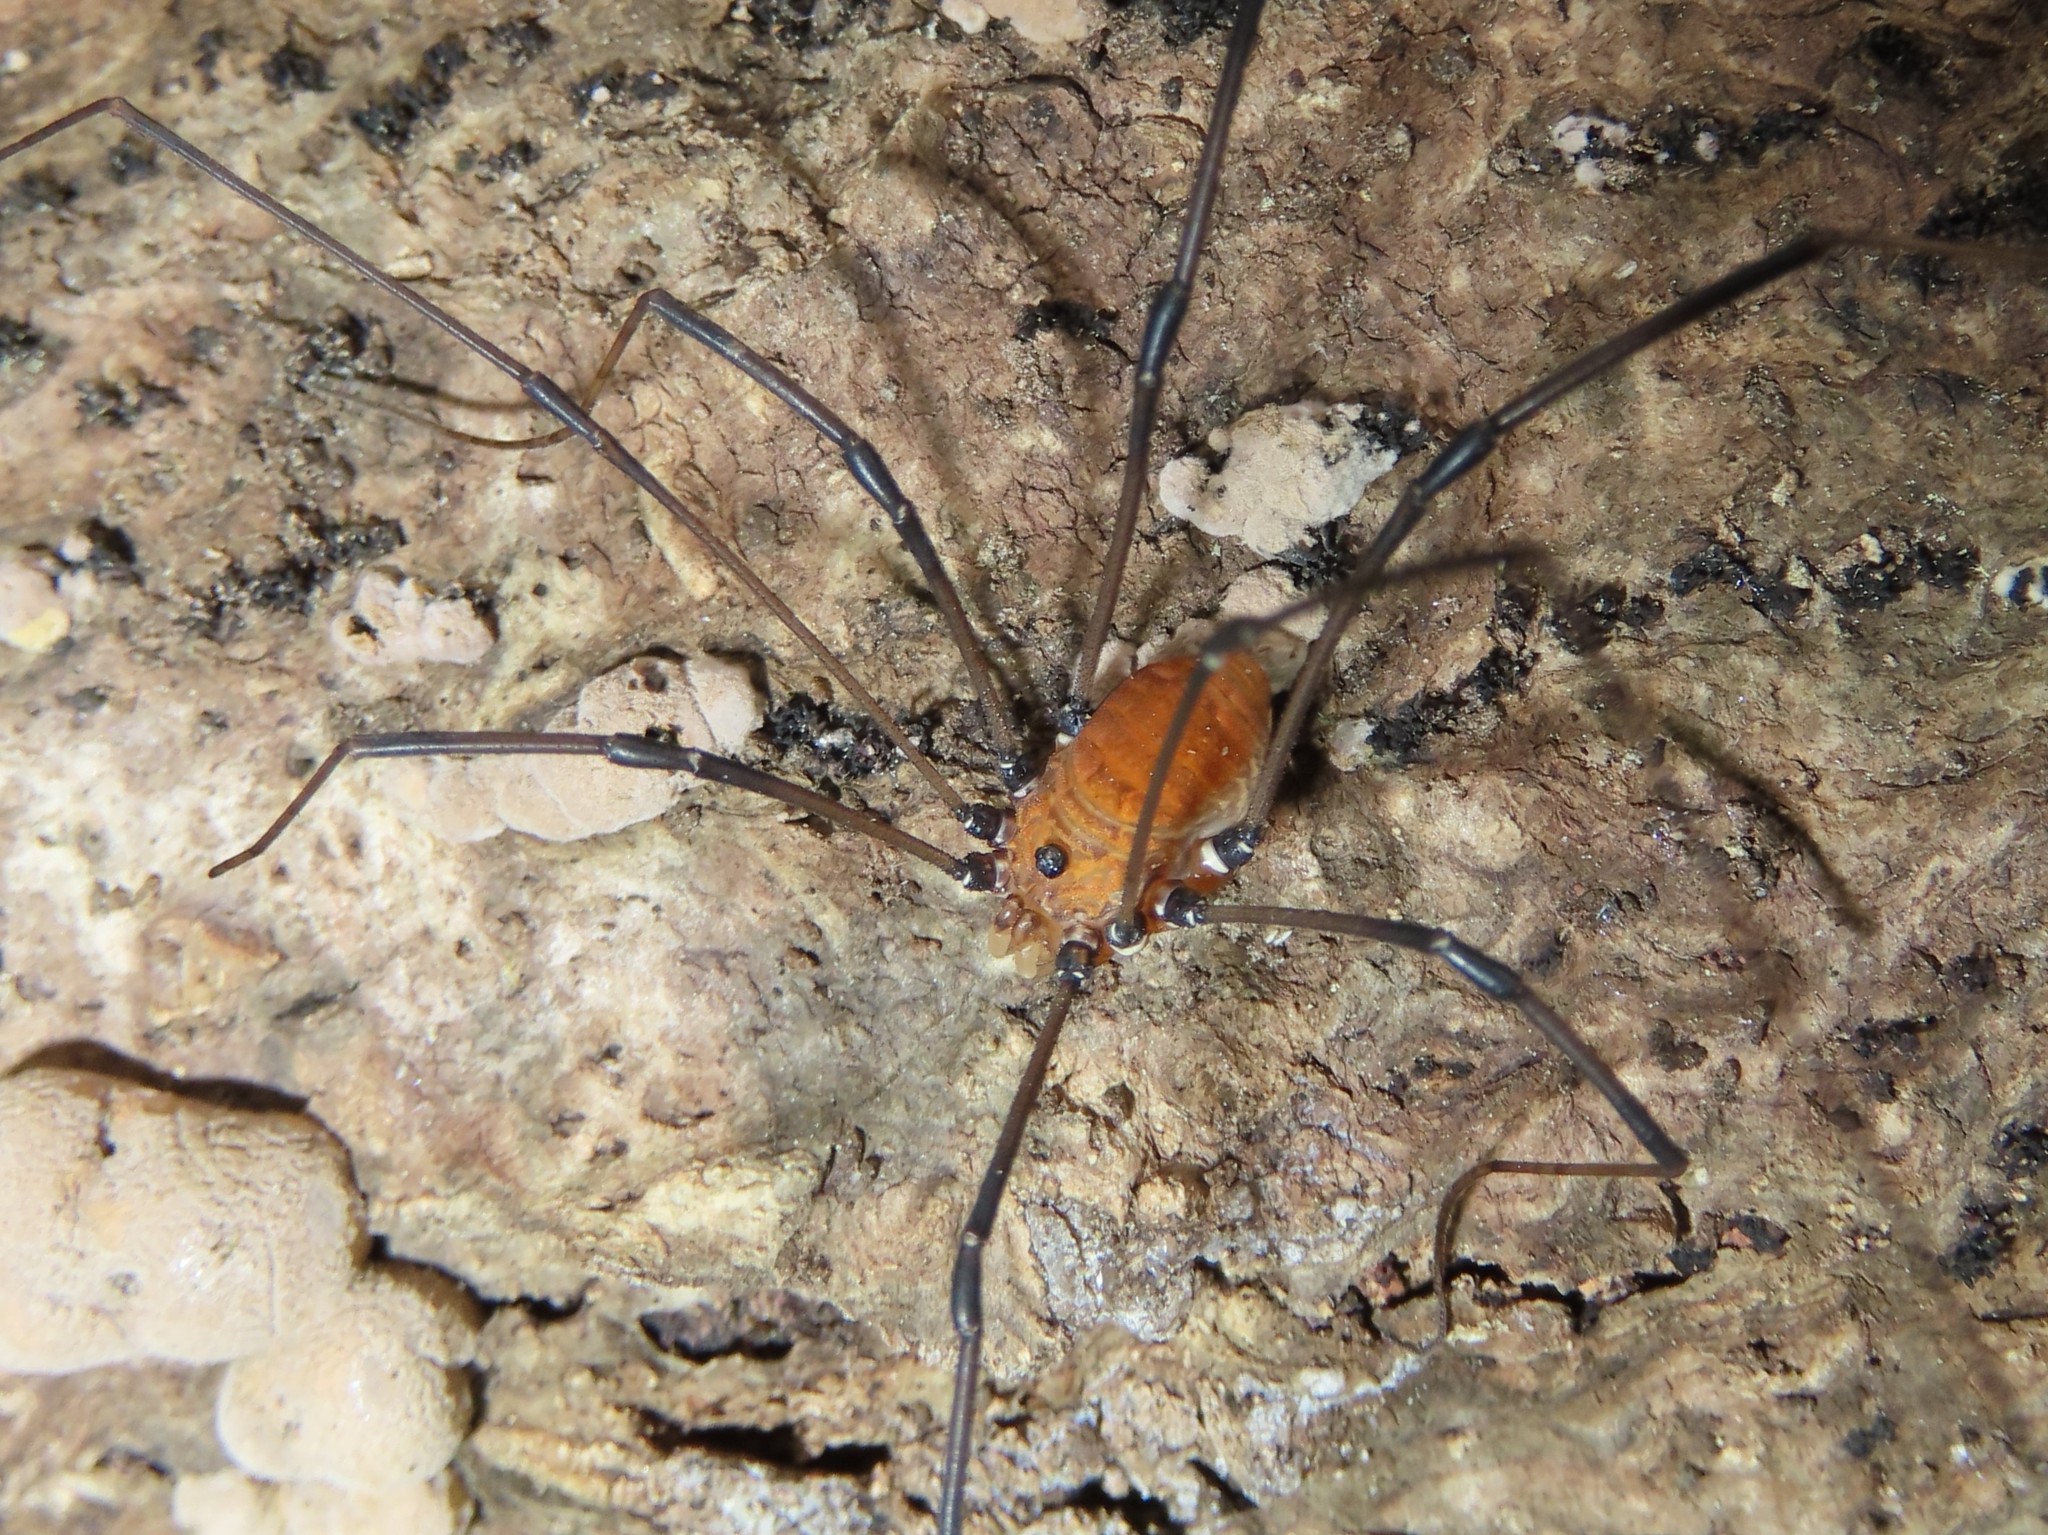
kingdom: Animalia
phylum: Arthropoda
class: Arachnida
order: Opiliones
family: Sclerosomatidae
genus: Leiobunum
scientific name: Leiobunum verrucosum
